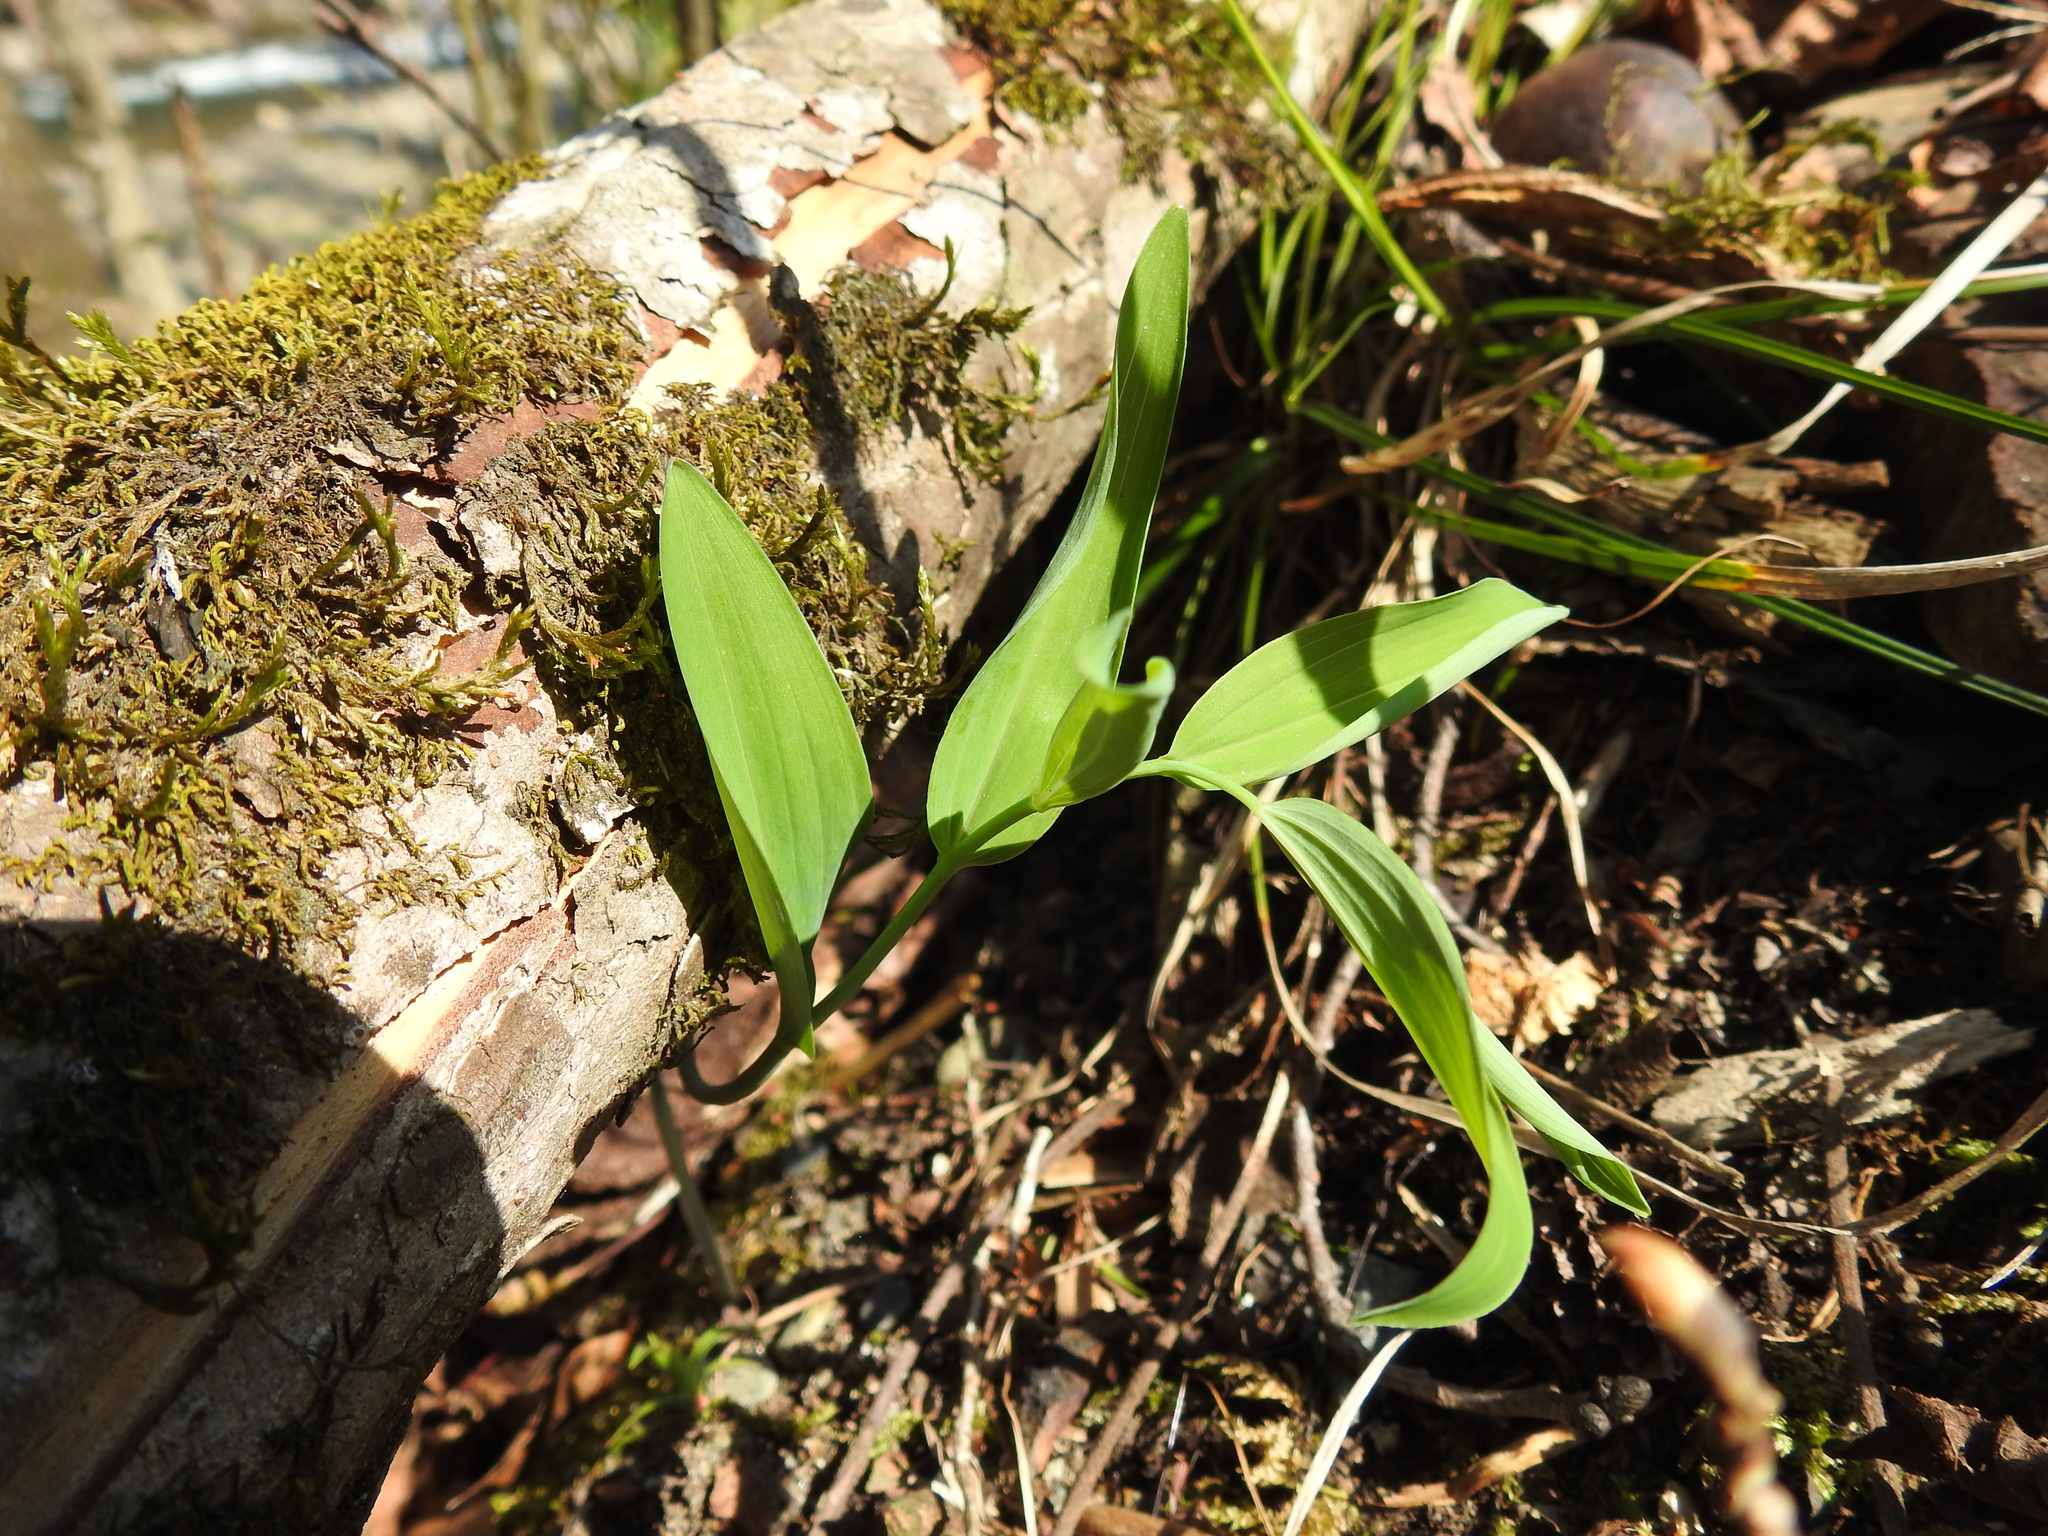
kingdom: Plantae
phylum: Tracheophyta
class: Liliopsida
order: Asparagales
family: Asparagaceae
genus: Polygonatum
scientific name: Polygonatum biflorum
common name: American solomon's-seal
